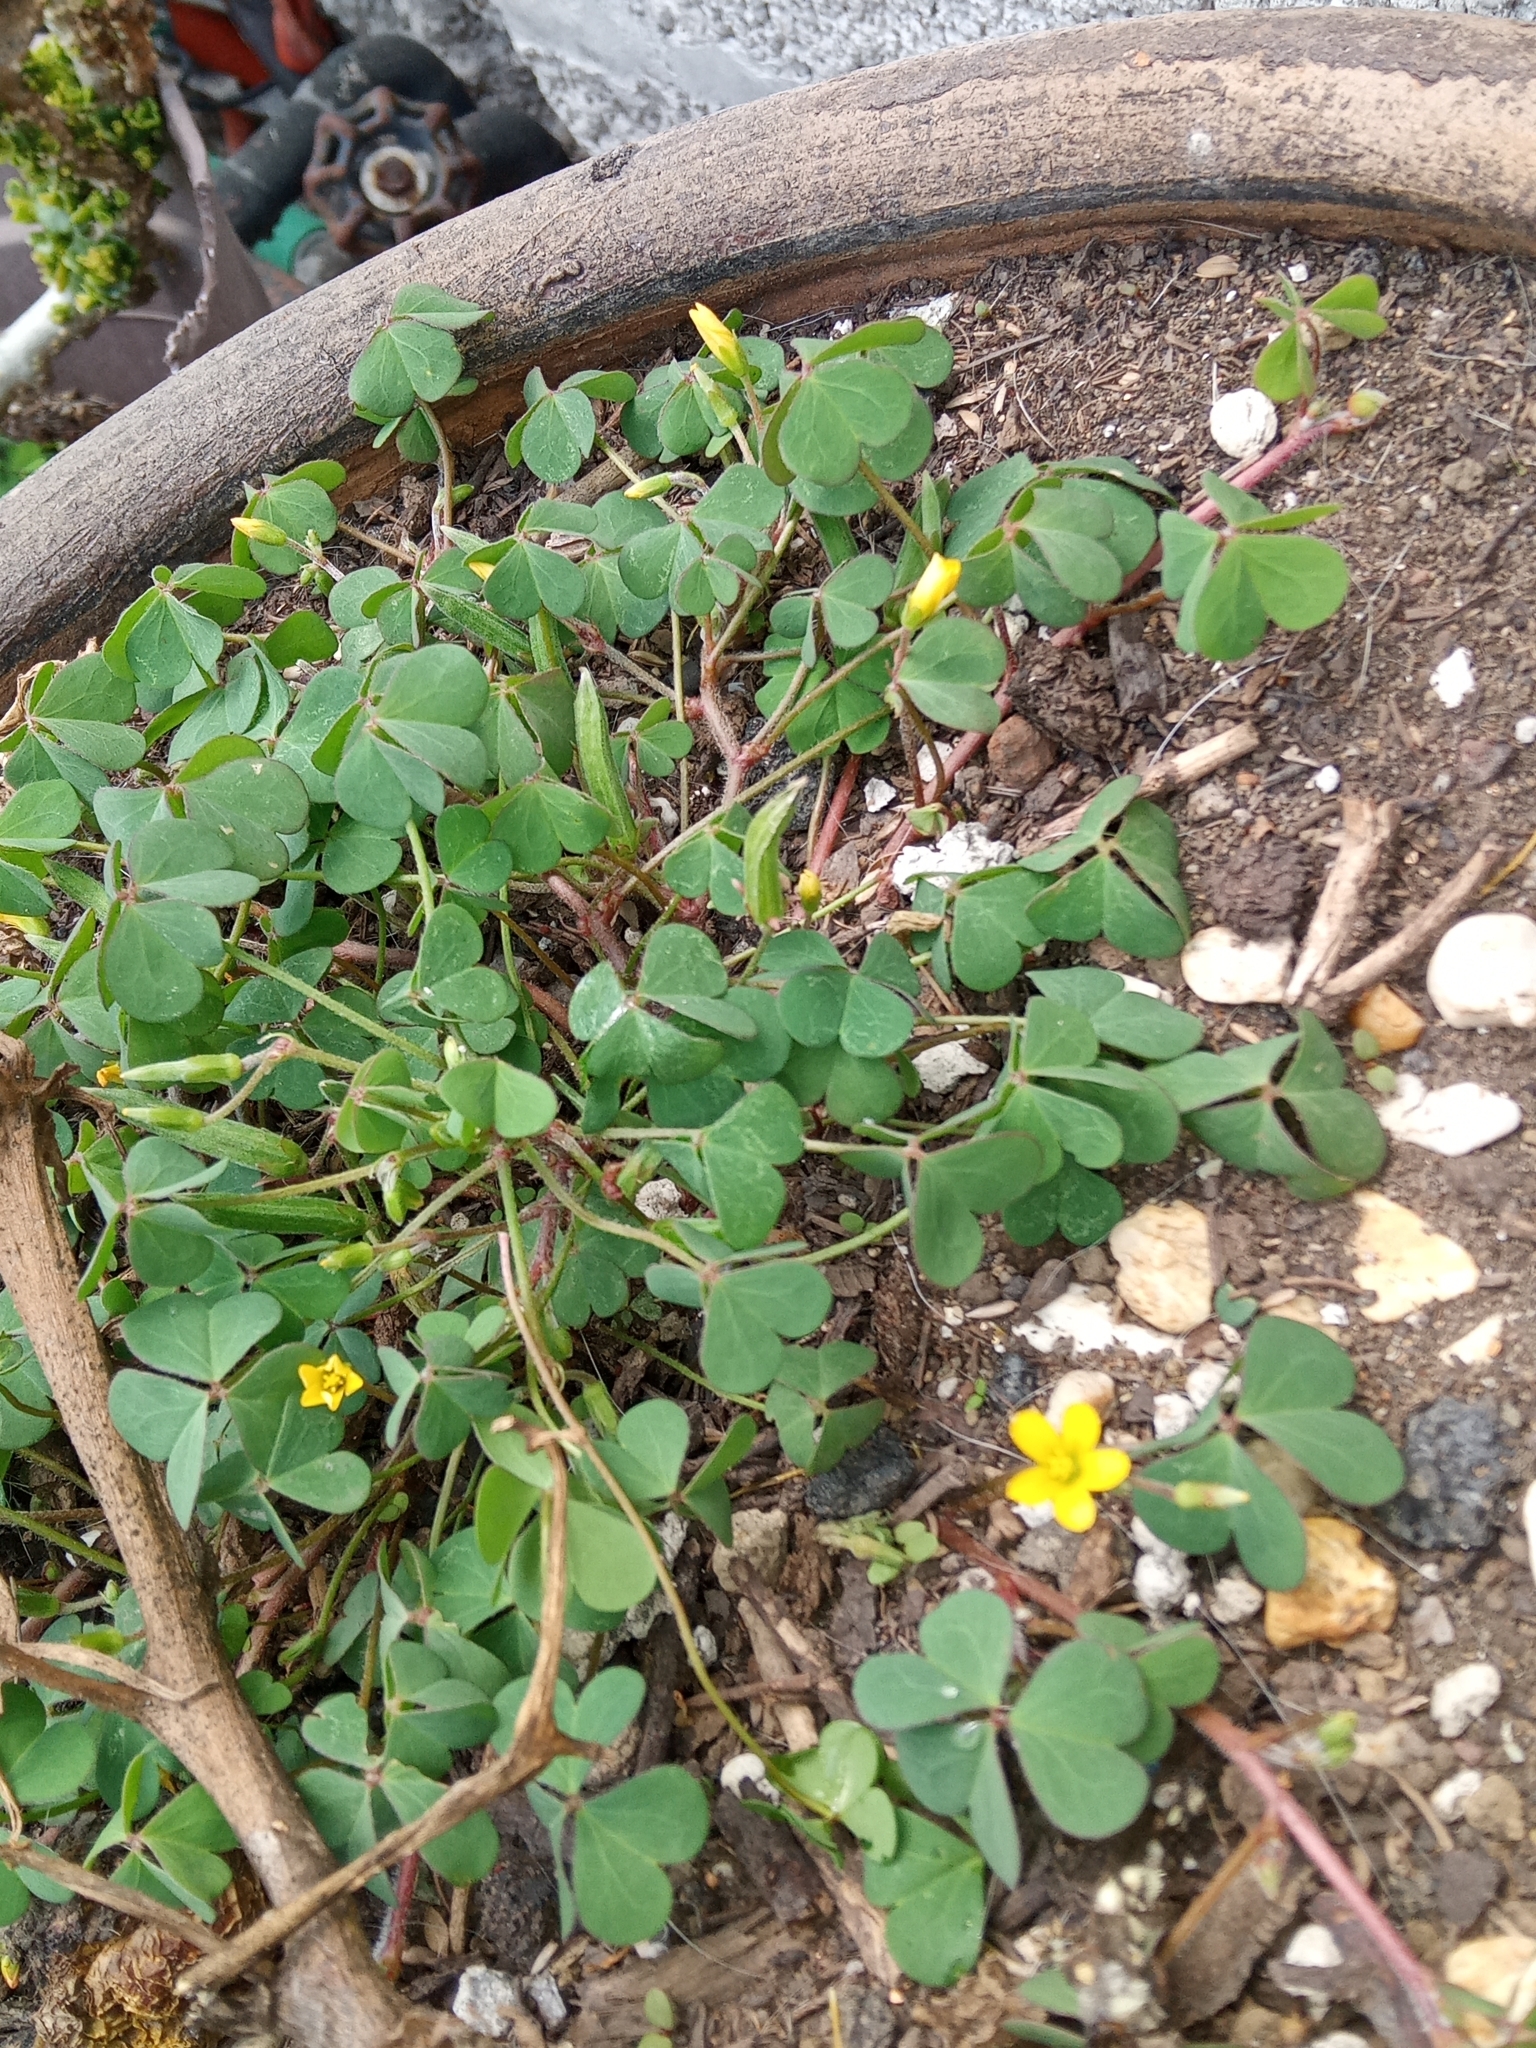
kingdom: Plantae
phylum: Tracheophyta
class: Magnoliopsida
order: Oxalidales
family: Oxalidaceae
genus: Oxalis
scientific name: Oxalis corniculata
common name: Procumbent yellow-sorrel
